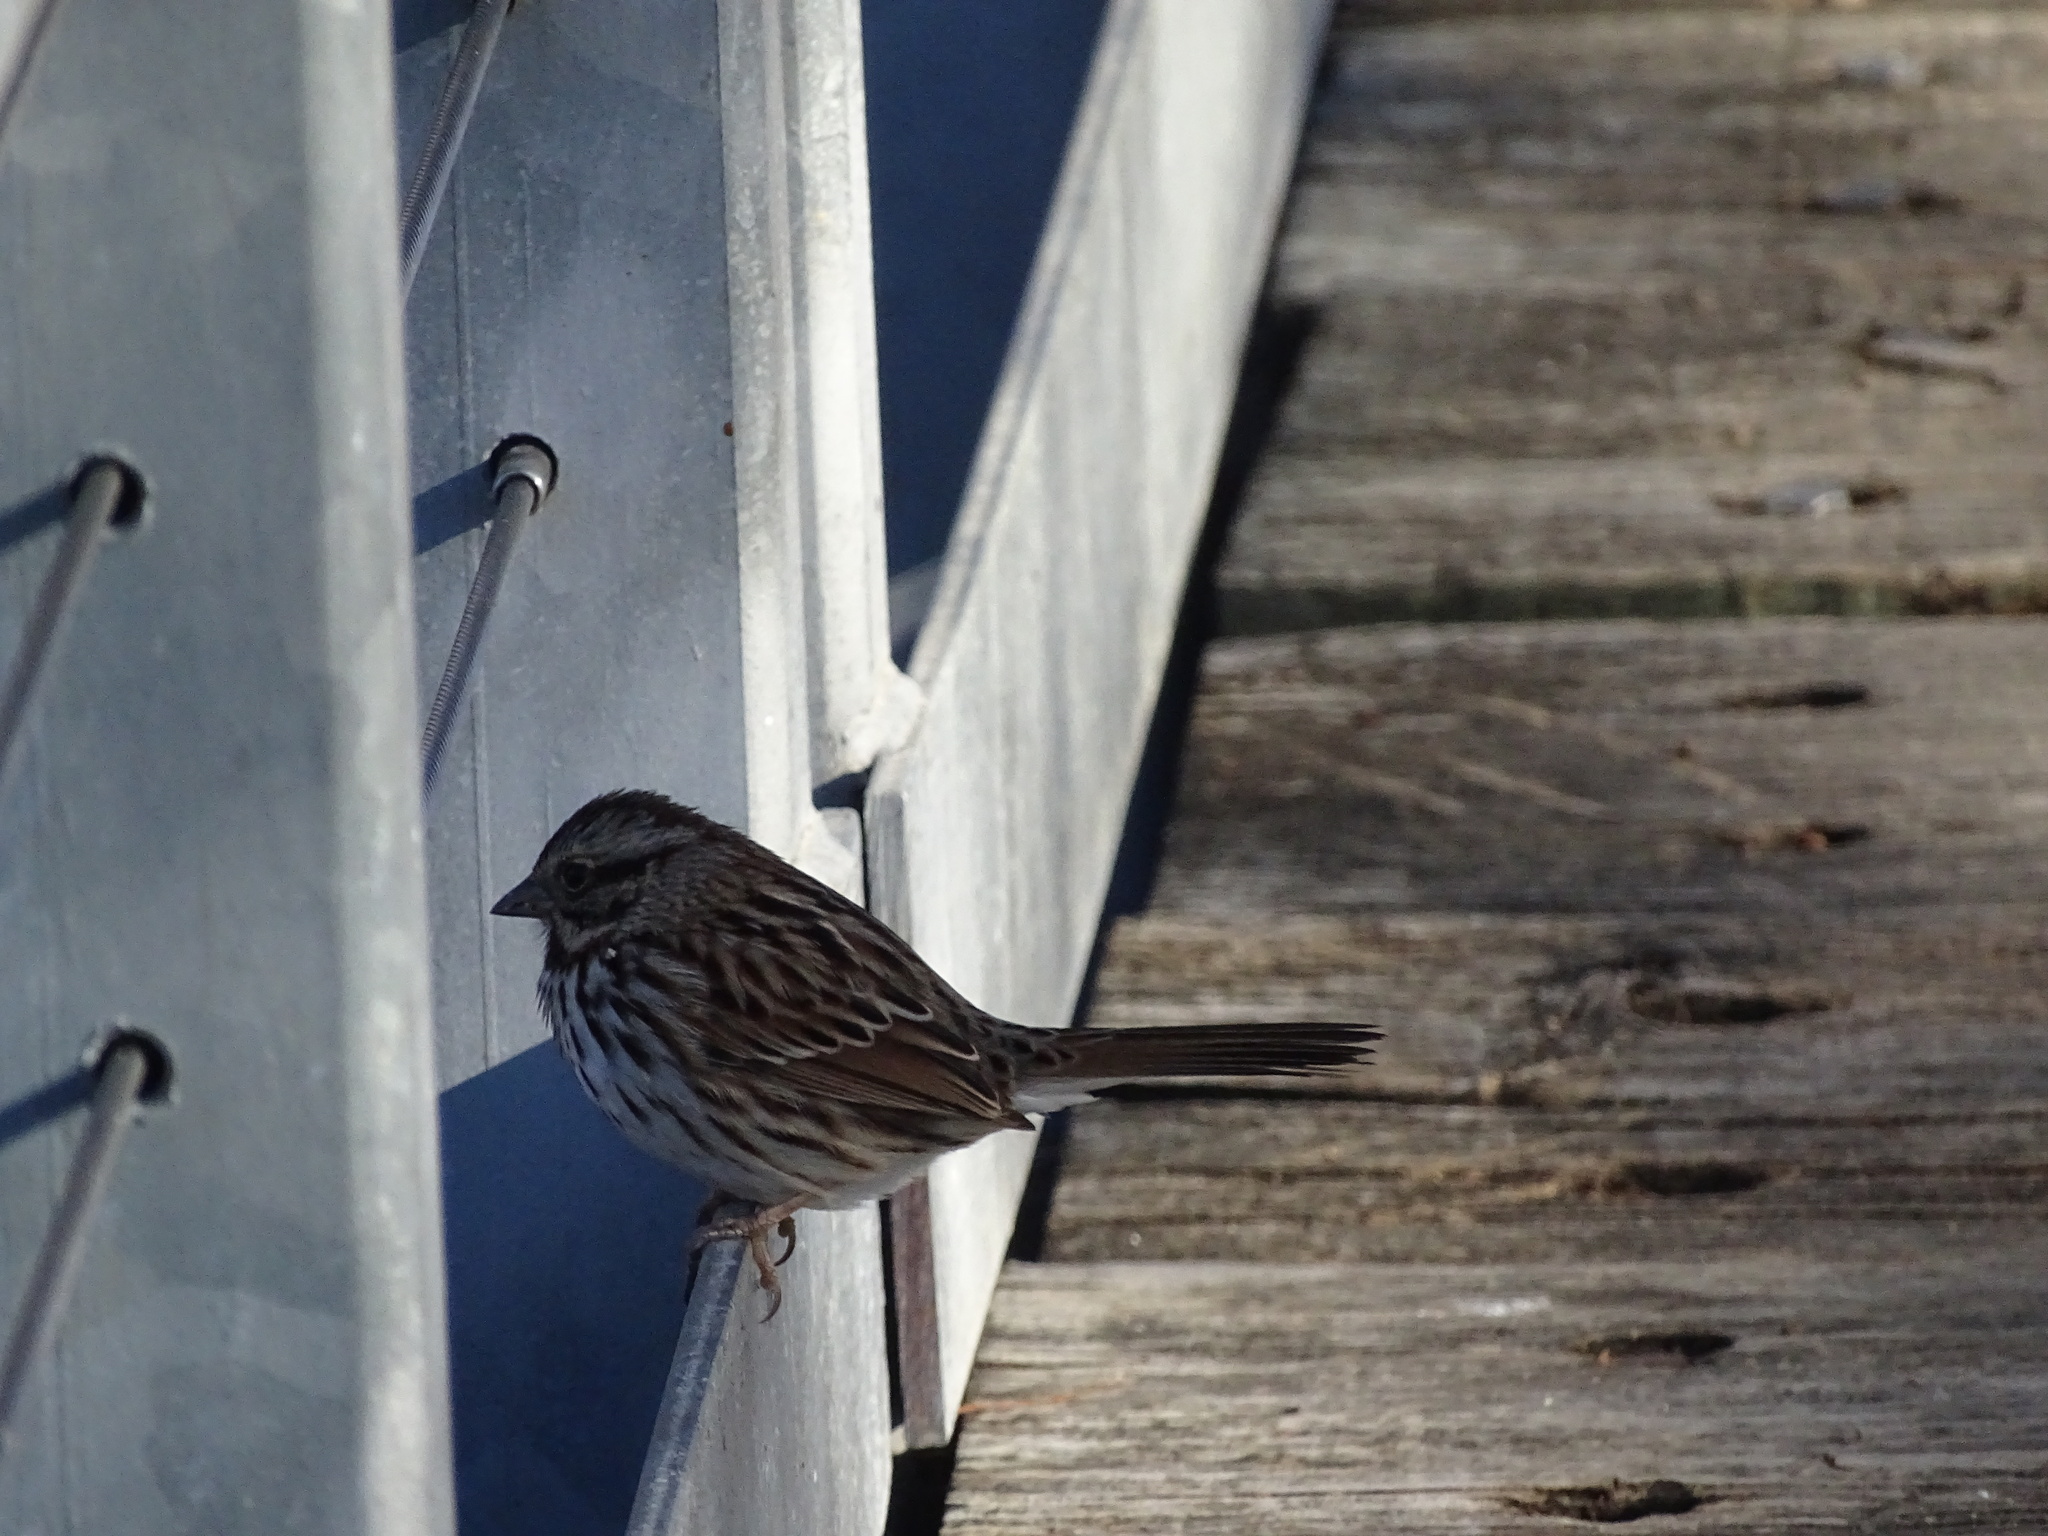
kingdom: Animalia
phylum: Chordata
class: Aves
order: Passeriformes
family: Passerellidae
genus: Melospiza
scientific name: Melospiza melodia
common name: Song sparrow
